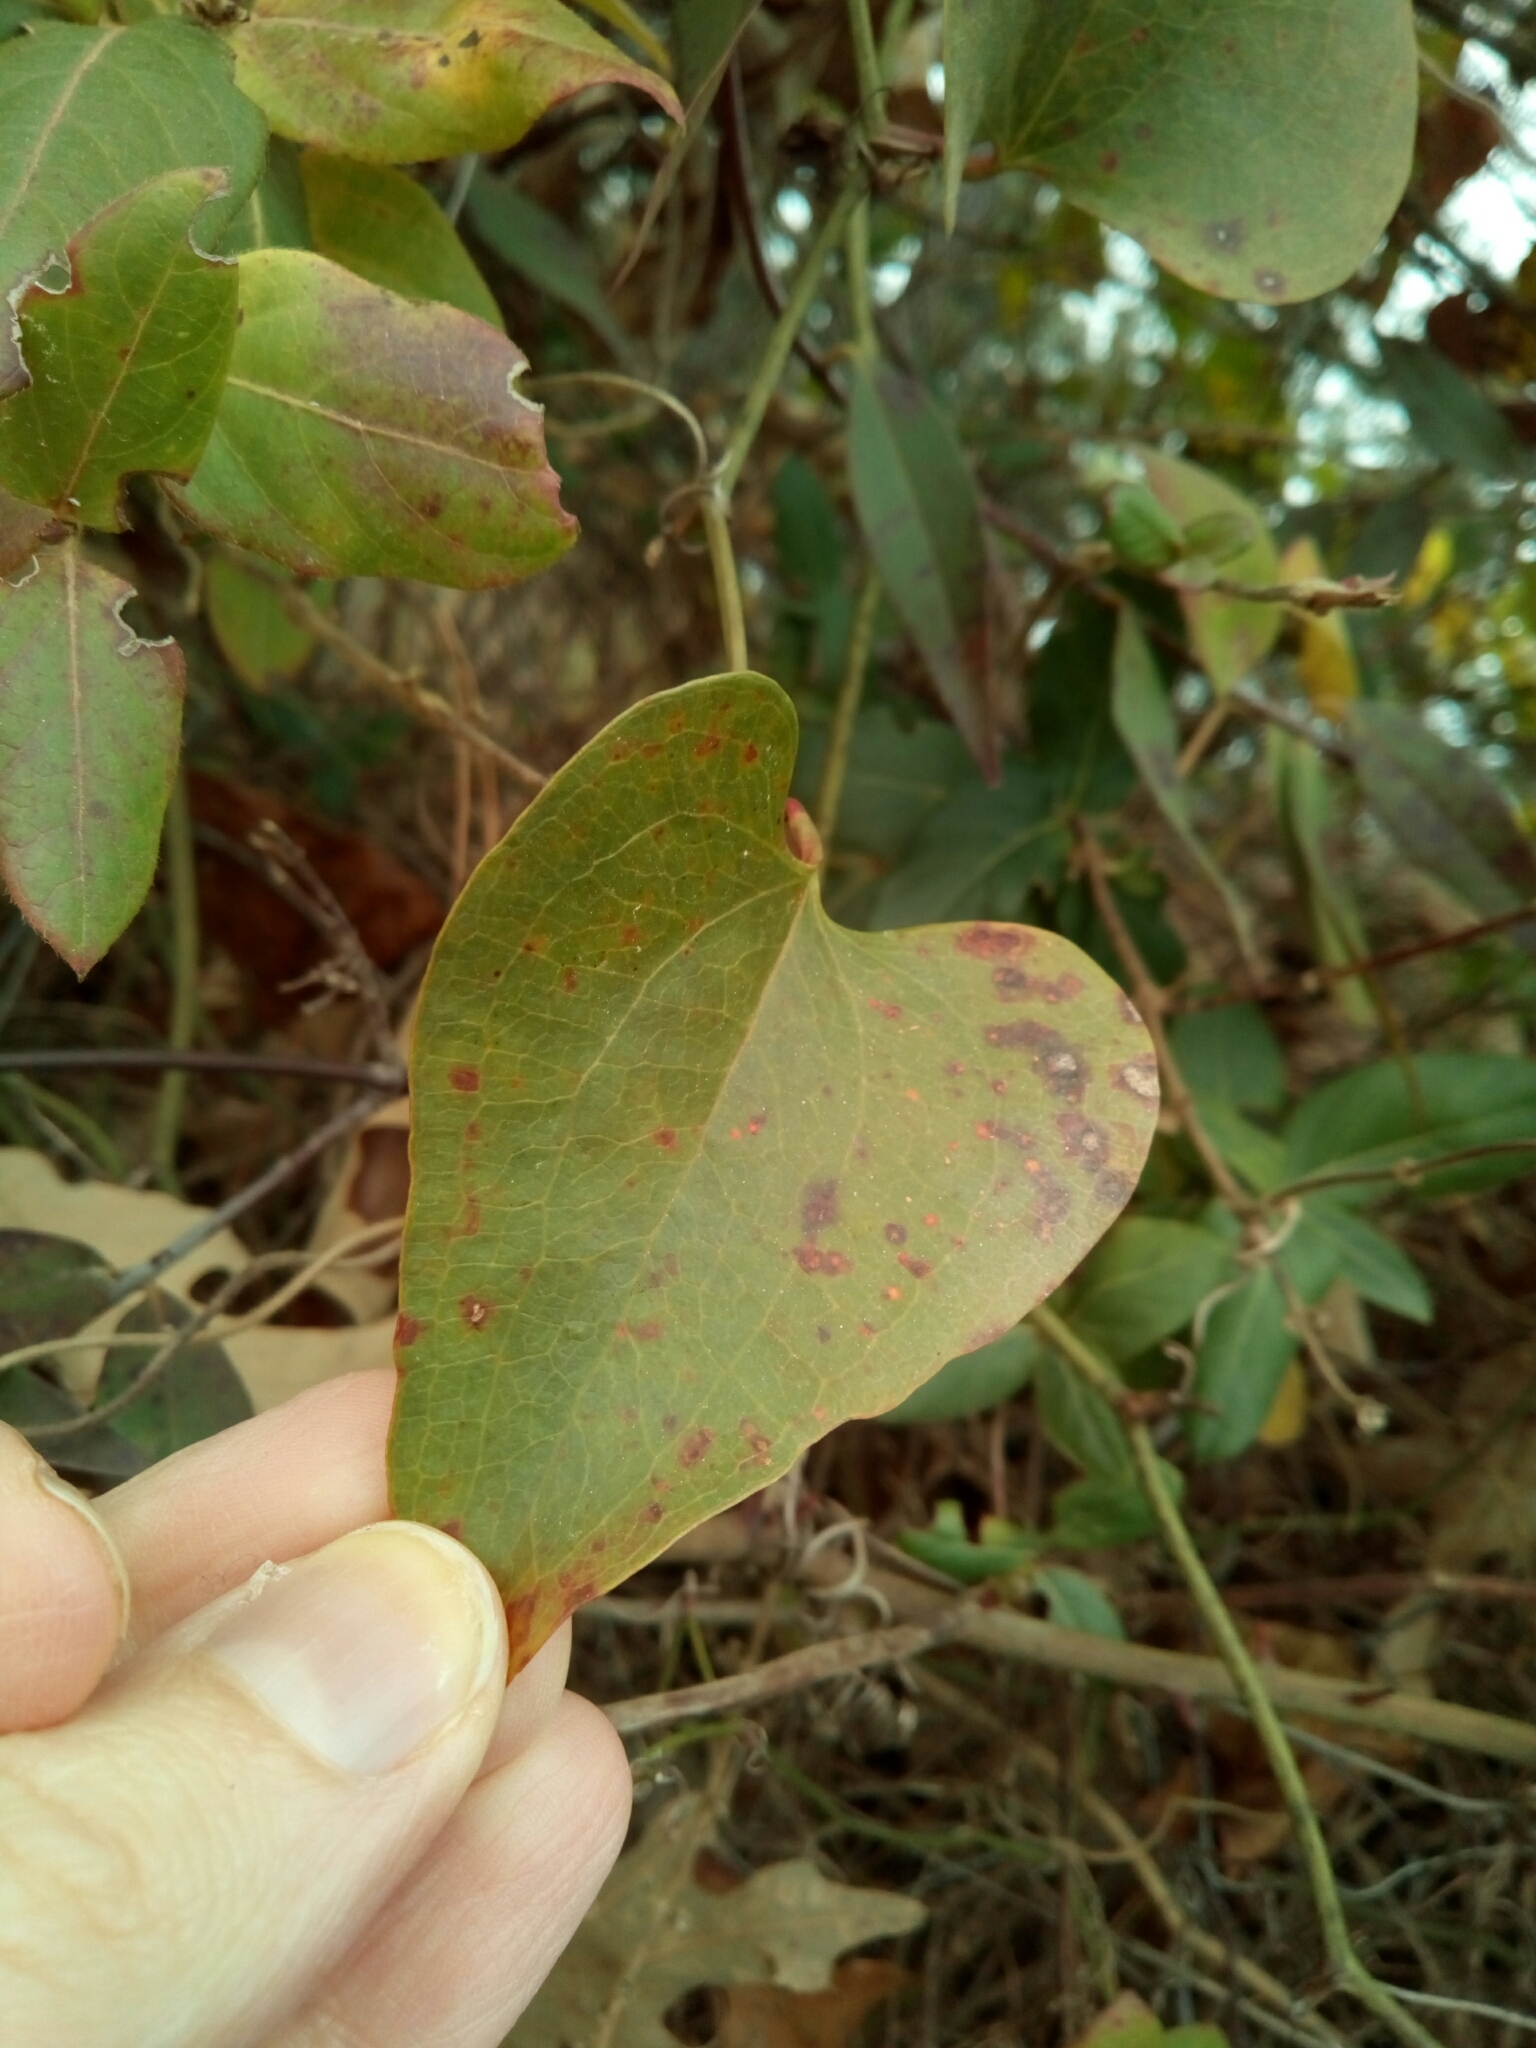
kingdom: Plantae
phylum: Tracheophyta
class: Liliopsida
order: Liliales
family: Smilacaceae
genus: Smilax
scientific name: Smilax bona-nox
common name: Catbrier
